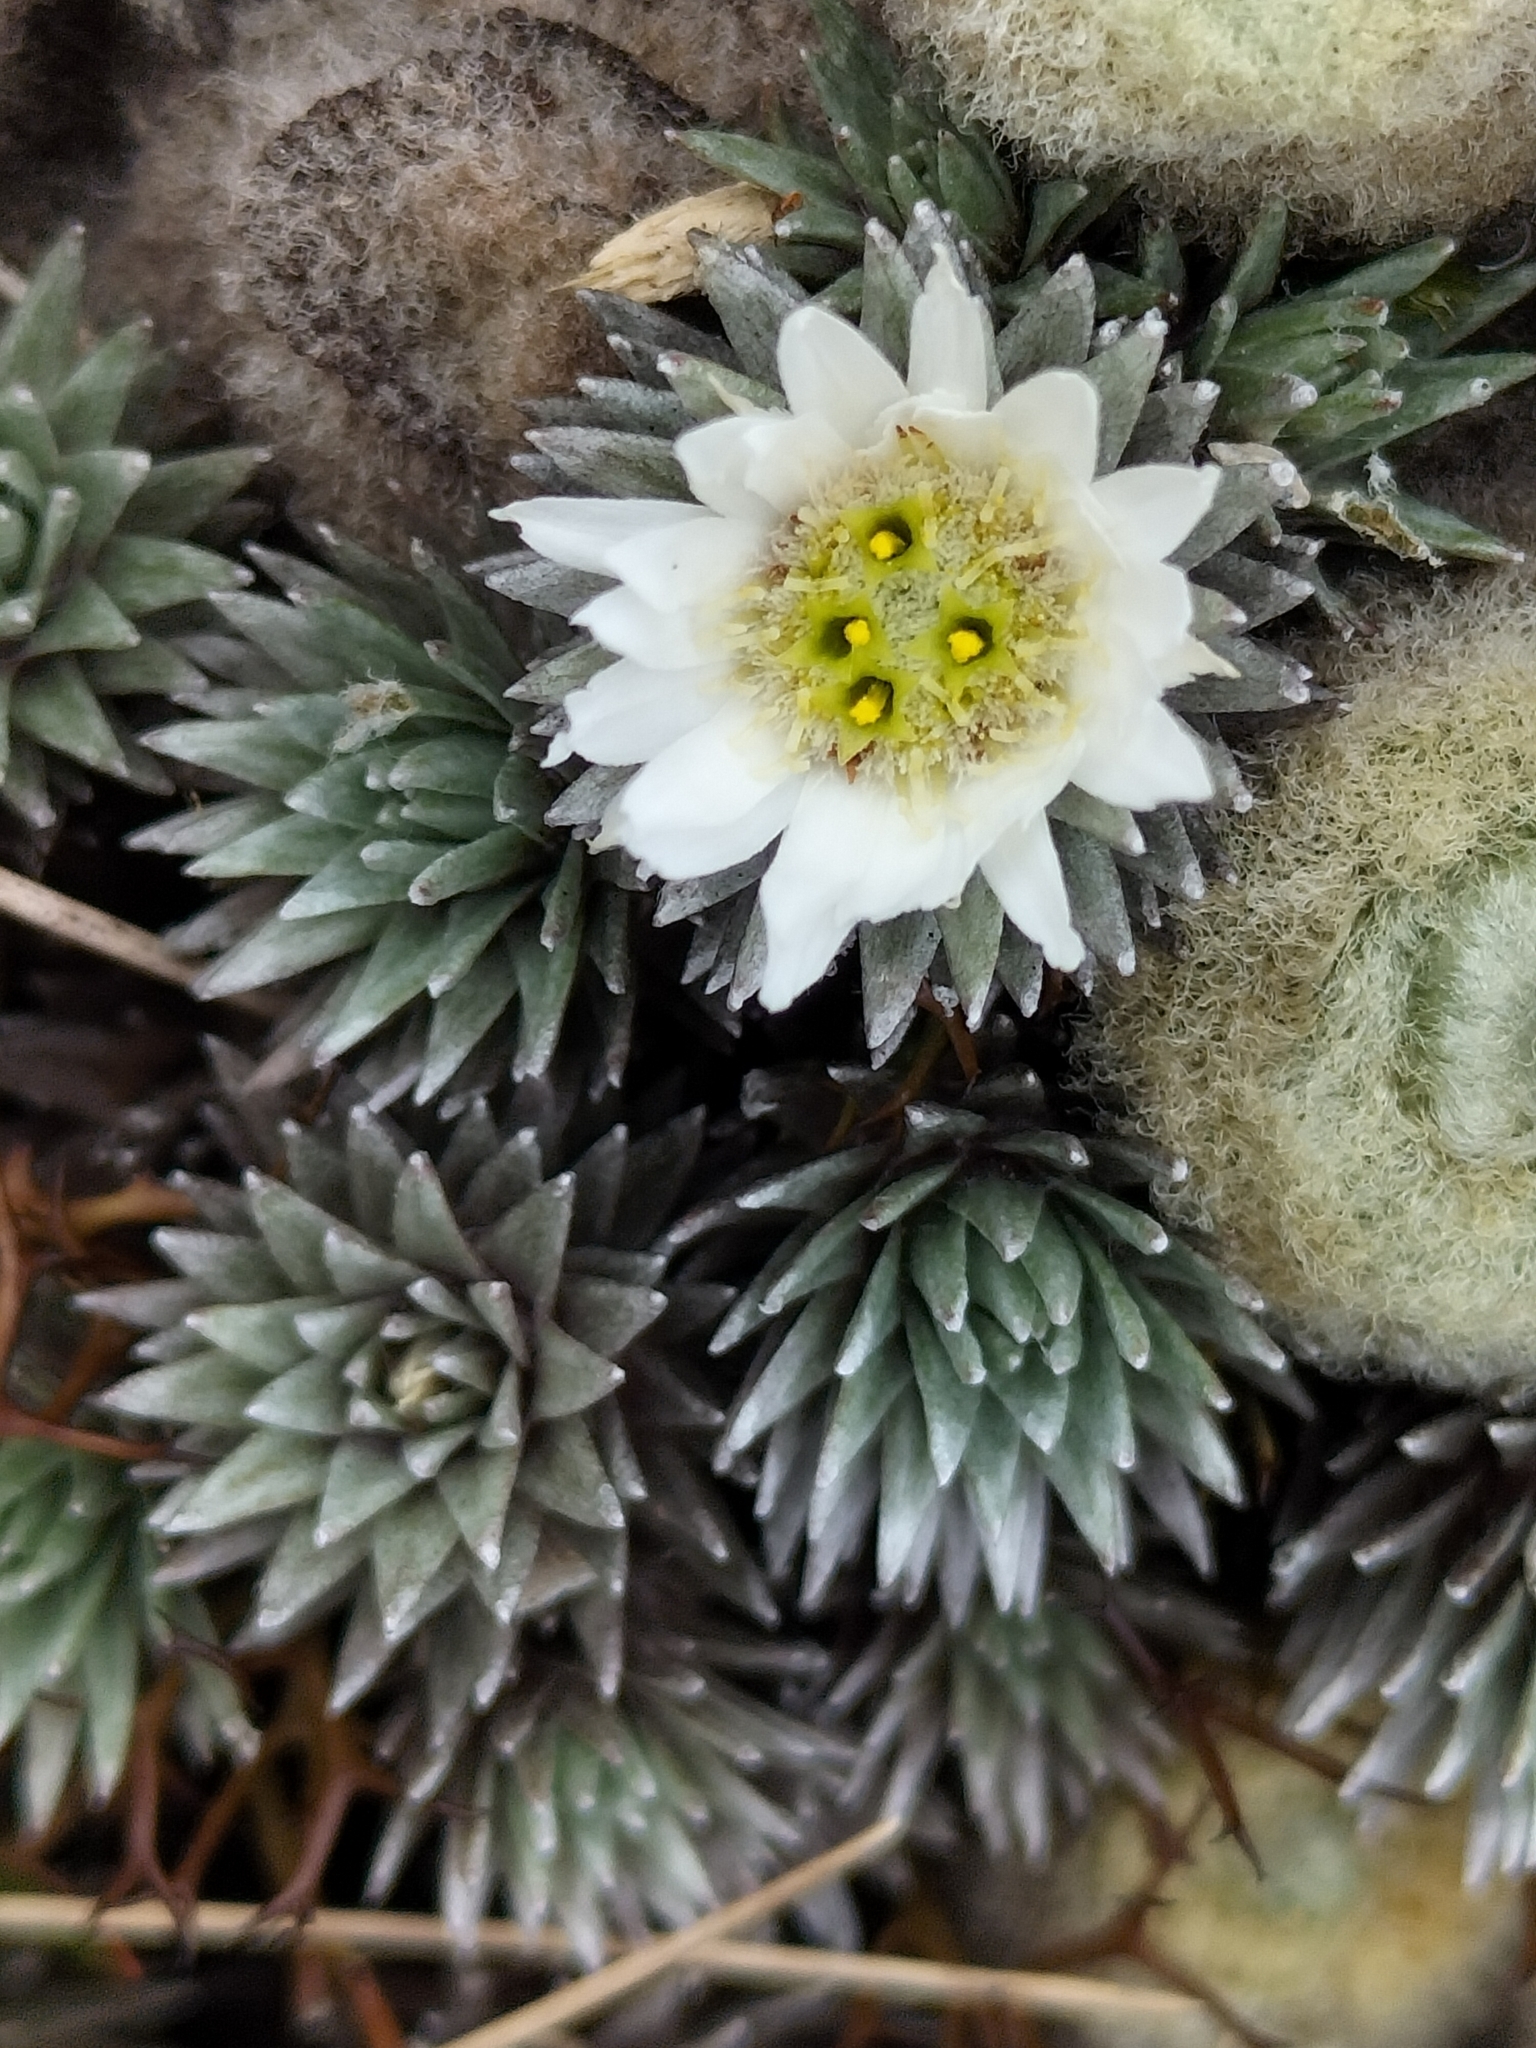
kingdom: Plantae
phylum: Tracheophyta
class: Magnoliopsida
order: Asterales
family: Asteraceae
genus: Raoulia
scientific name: Raoulia grandiflora
